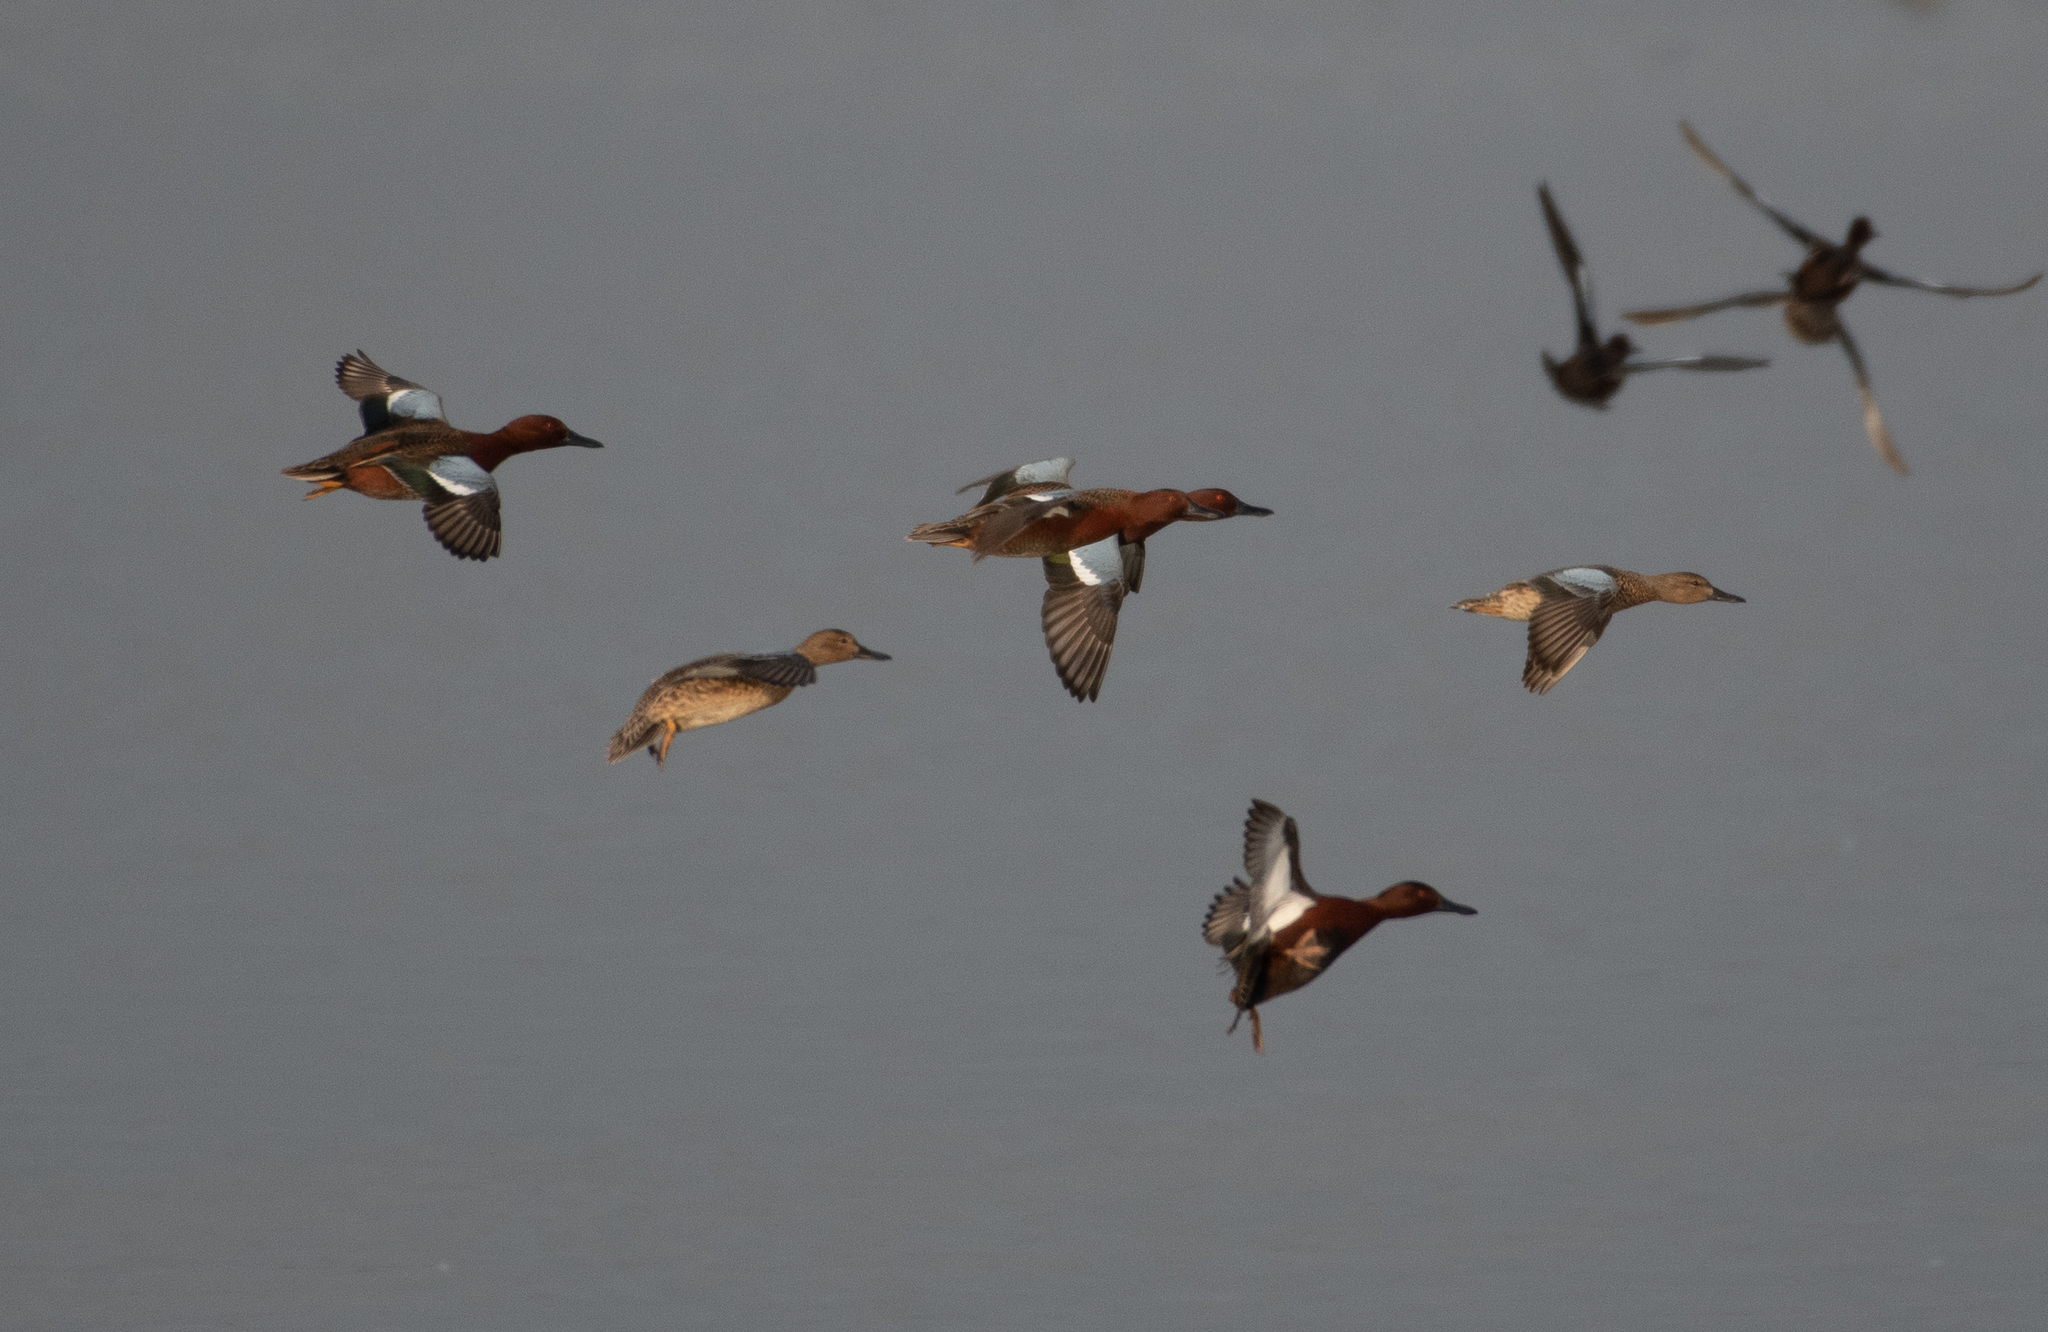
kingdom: Animalia
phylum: Chordata
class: Aves
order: Anseriformes
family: Anatidae
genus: Spatula
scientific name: Spatula cyanoptera
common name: Cinnamon teal
